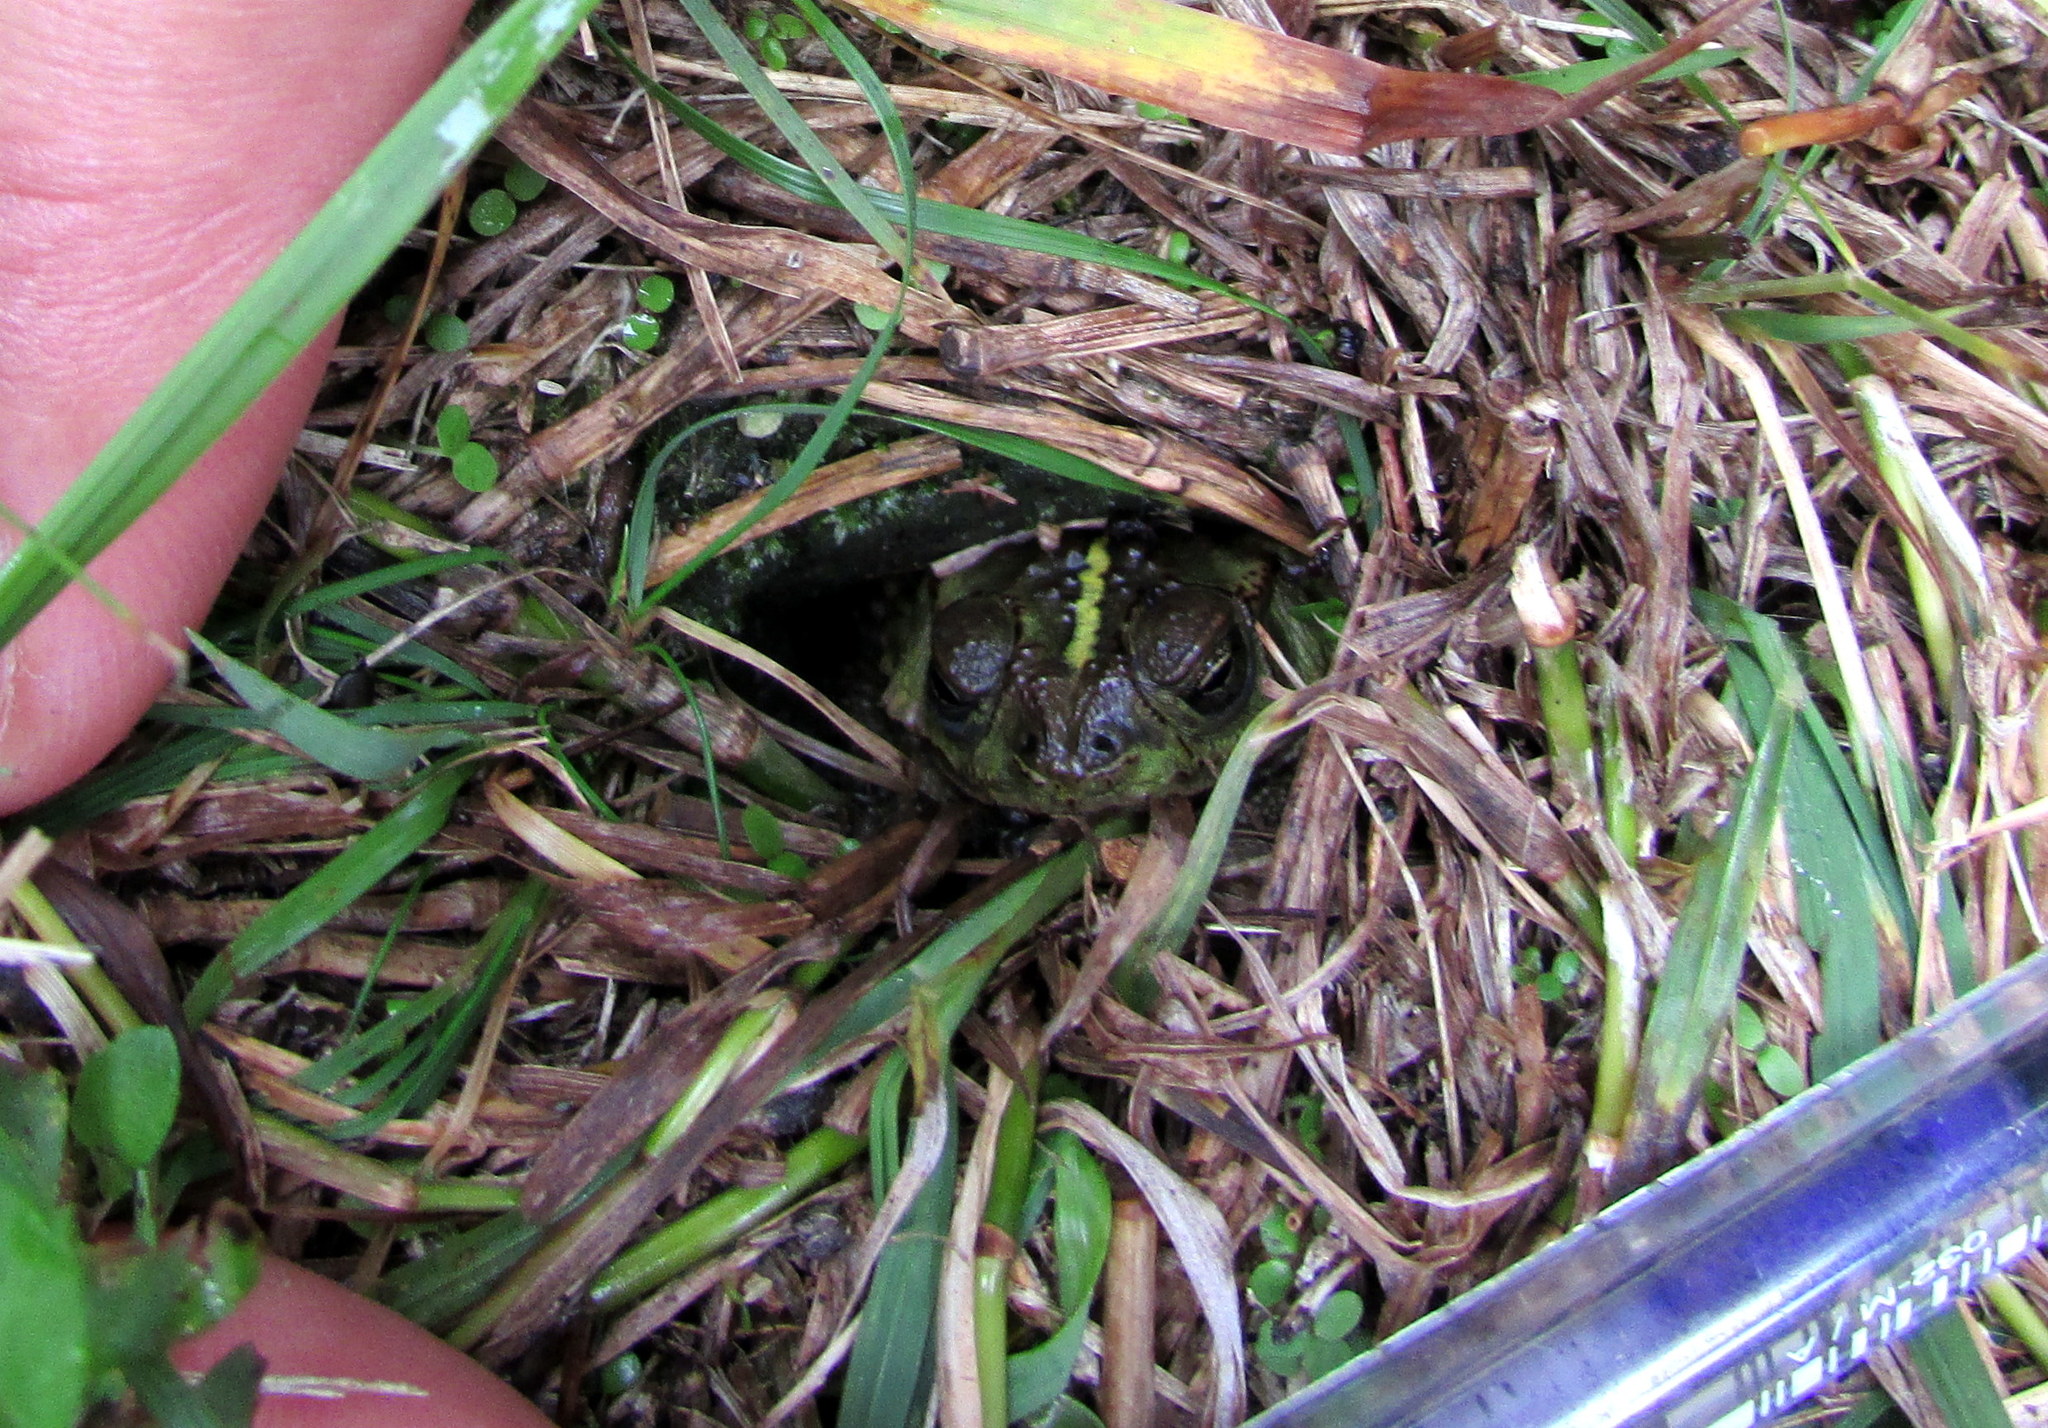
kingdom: Animalia
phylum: Chordata
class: Amphibia
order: Anura
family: Bufonidae
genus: Rhinella
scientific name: Rhinella dorbignyi
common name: D´orbigny’s toad
